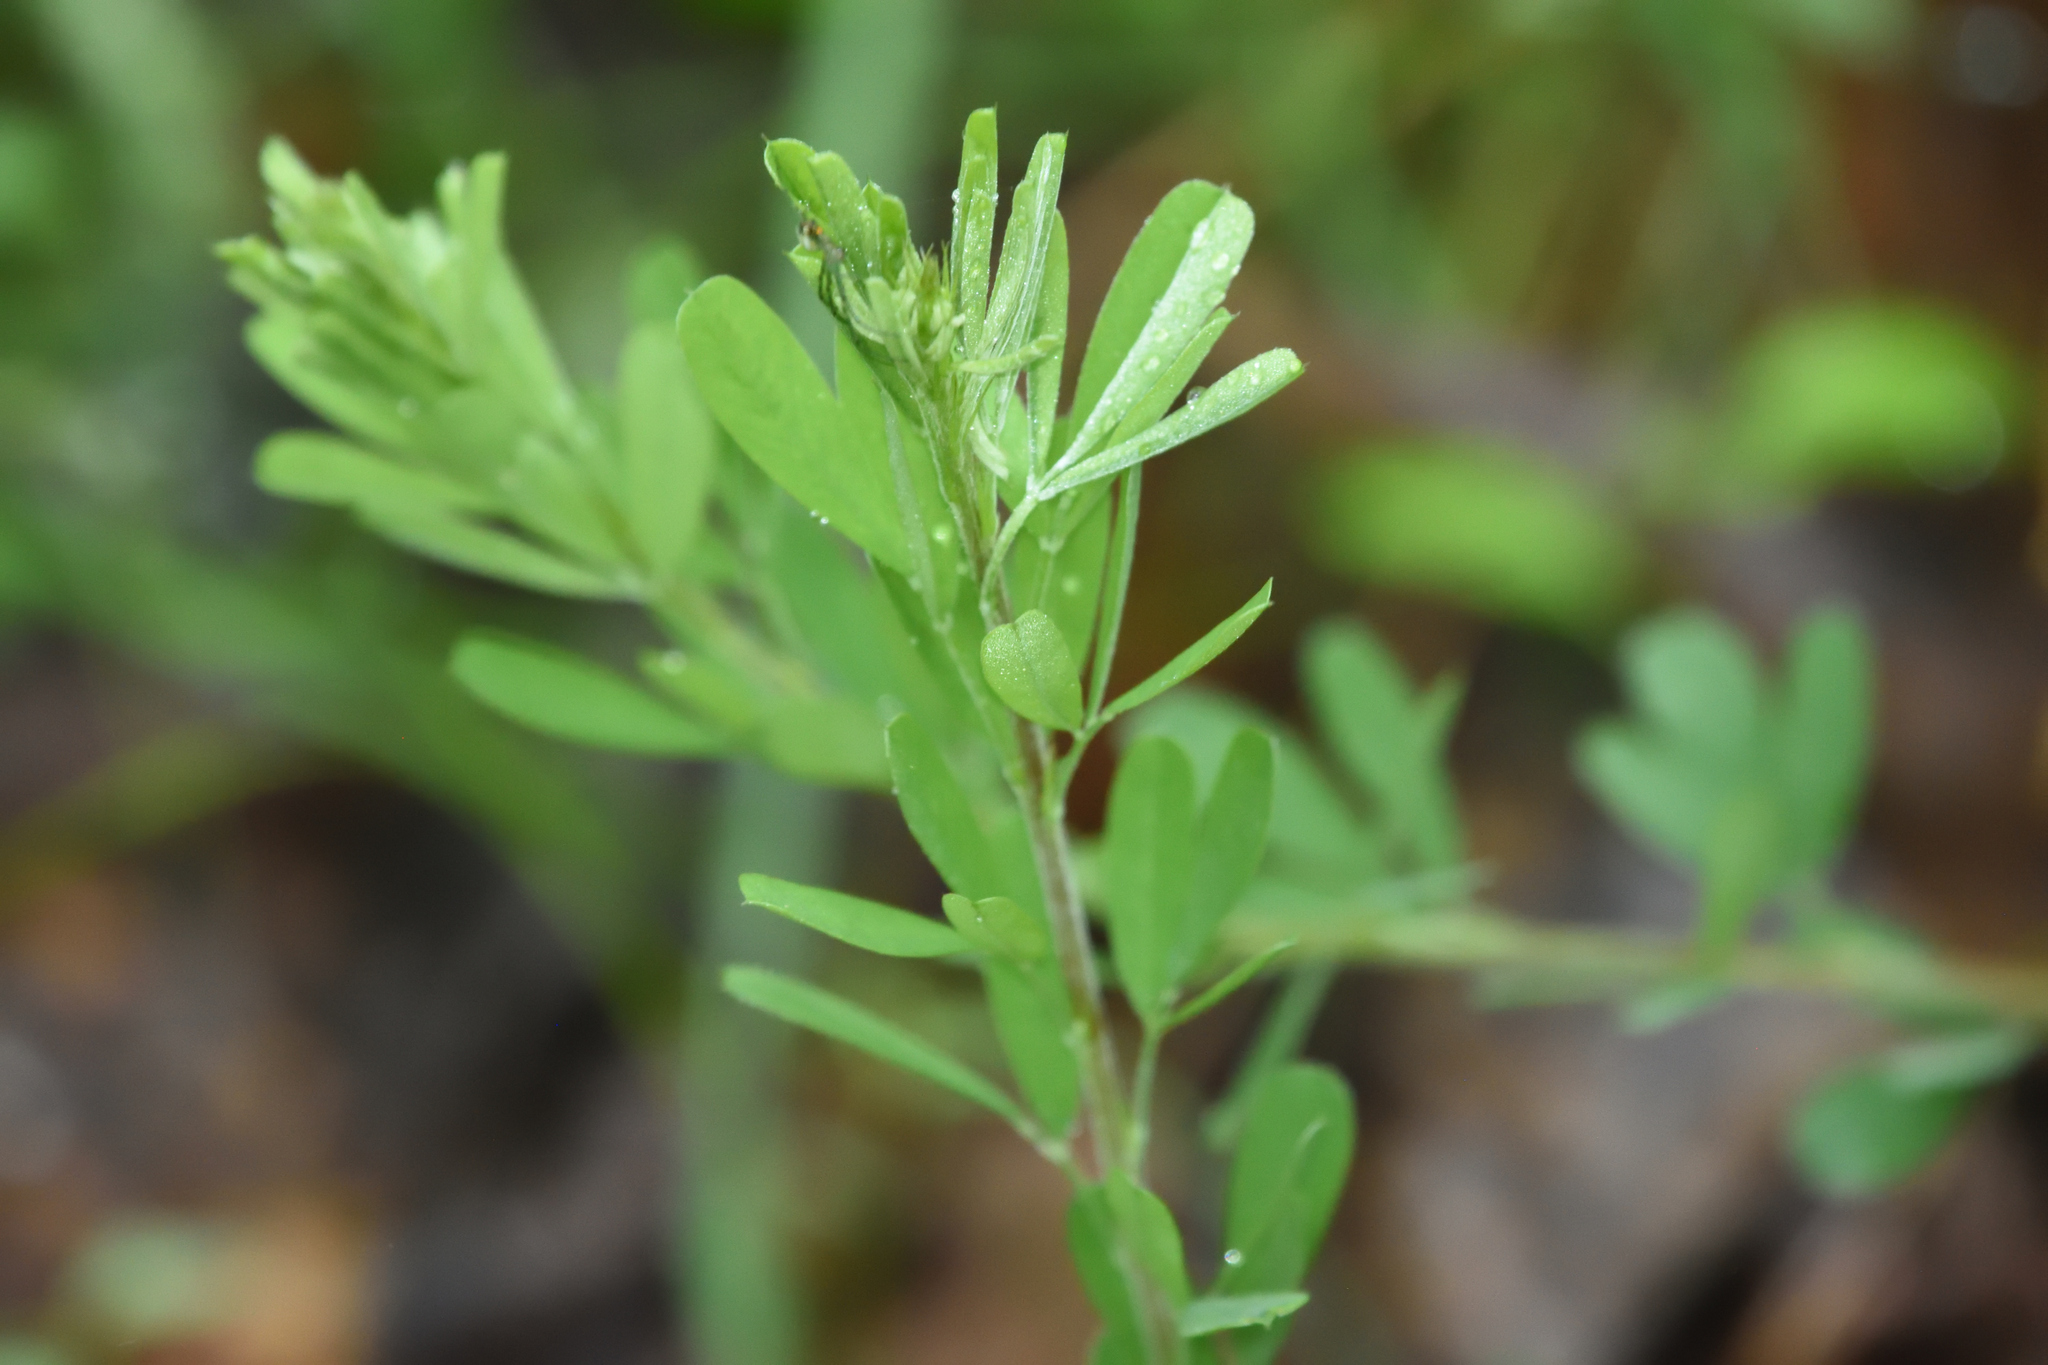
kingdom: Plantae
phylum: Tracheophyta
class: Magnoliopsida
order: Fabales
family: Fabaceae
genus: Lespedeza
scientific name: Lespedeza cuneata
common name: Chinese bush-clover
